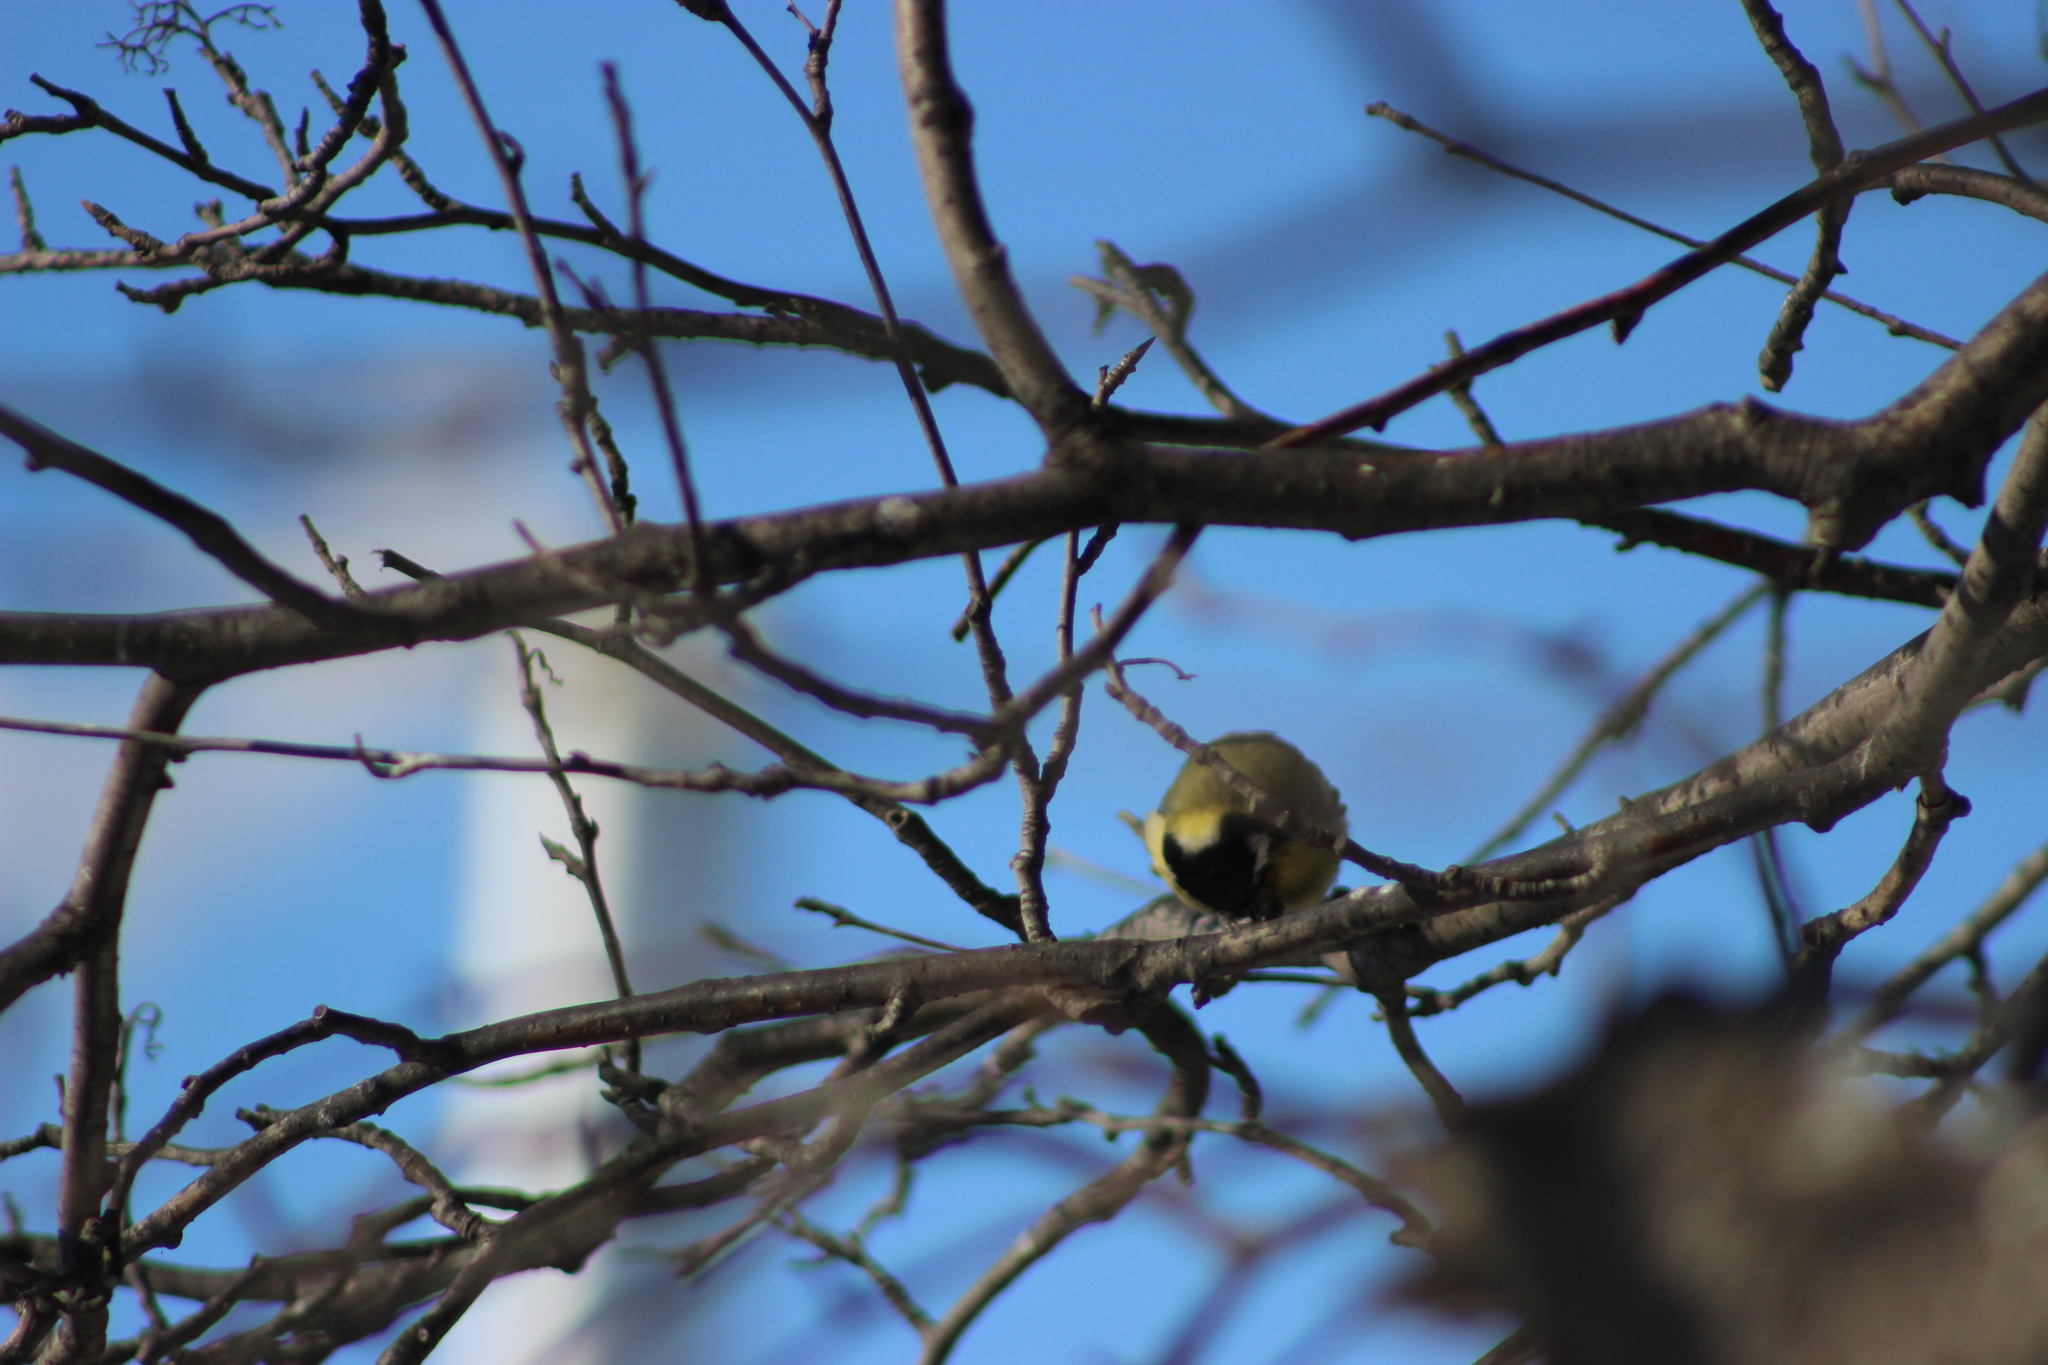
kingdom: Animalia
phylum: Chordata
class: Aves
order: Passeriformes
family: Paridae
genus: Parus
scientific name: Parus major
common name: Great tit
